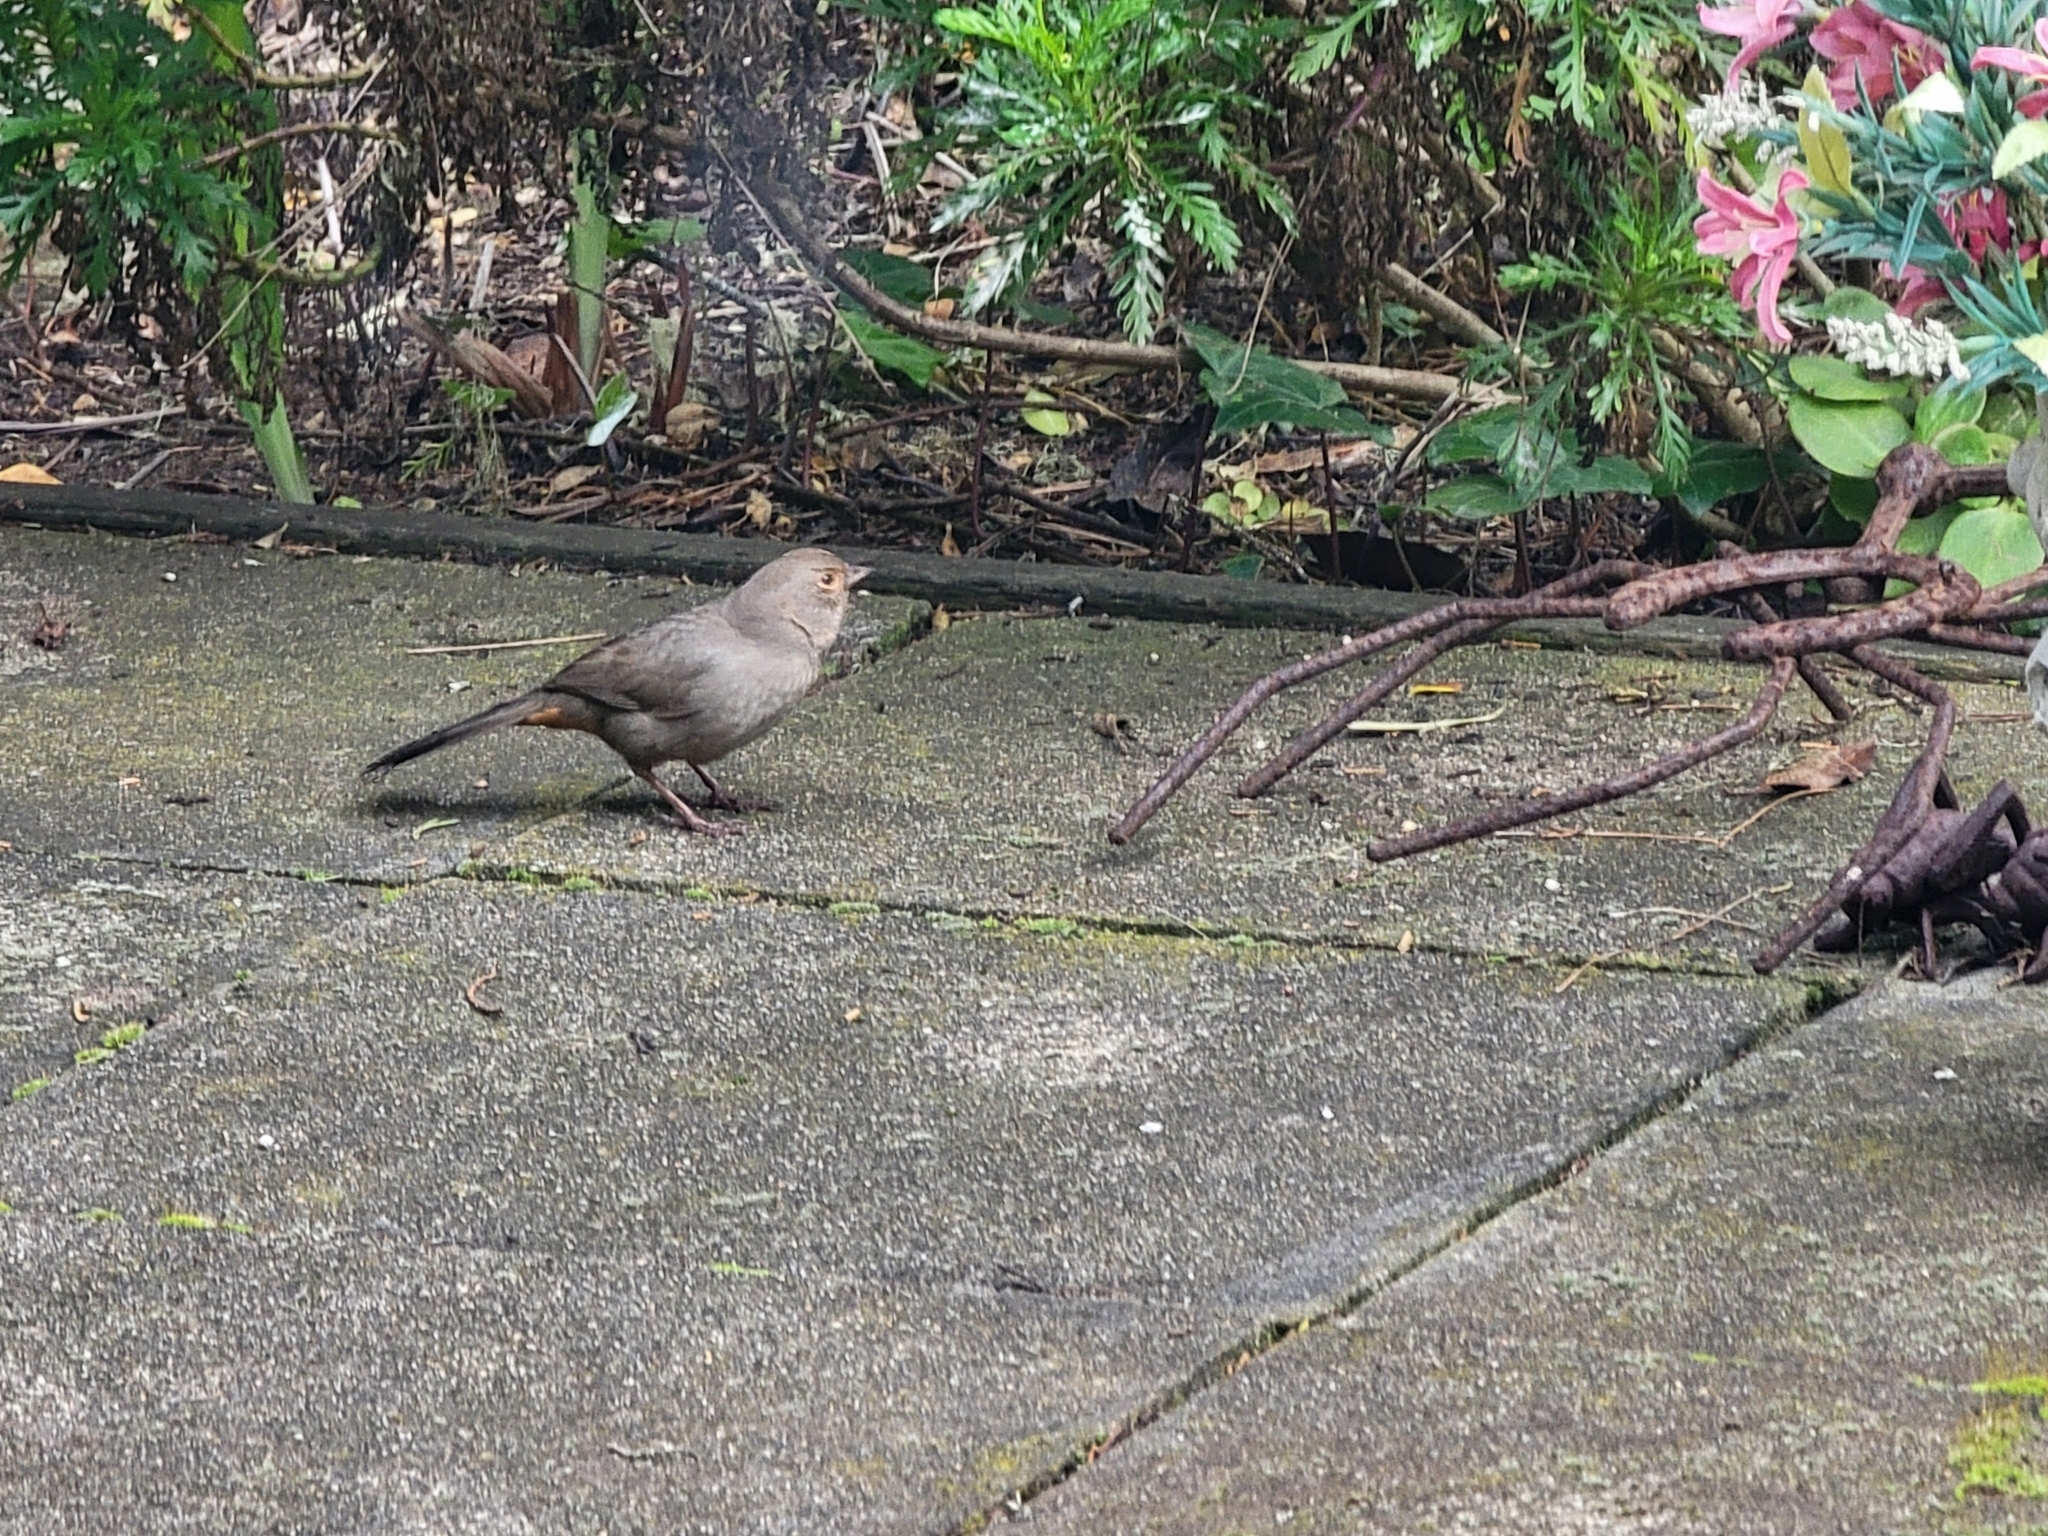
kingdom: Animalia
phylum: Chordata
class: Aves
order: Passeriformes
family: Passerellidae
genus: Melozone
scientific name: Melozone crissalis
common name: California towhee
